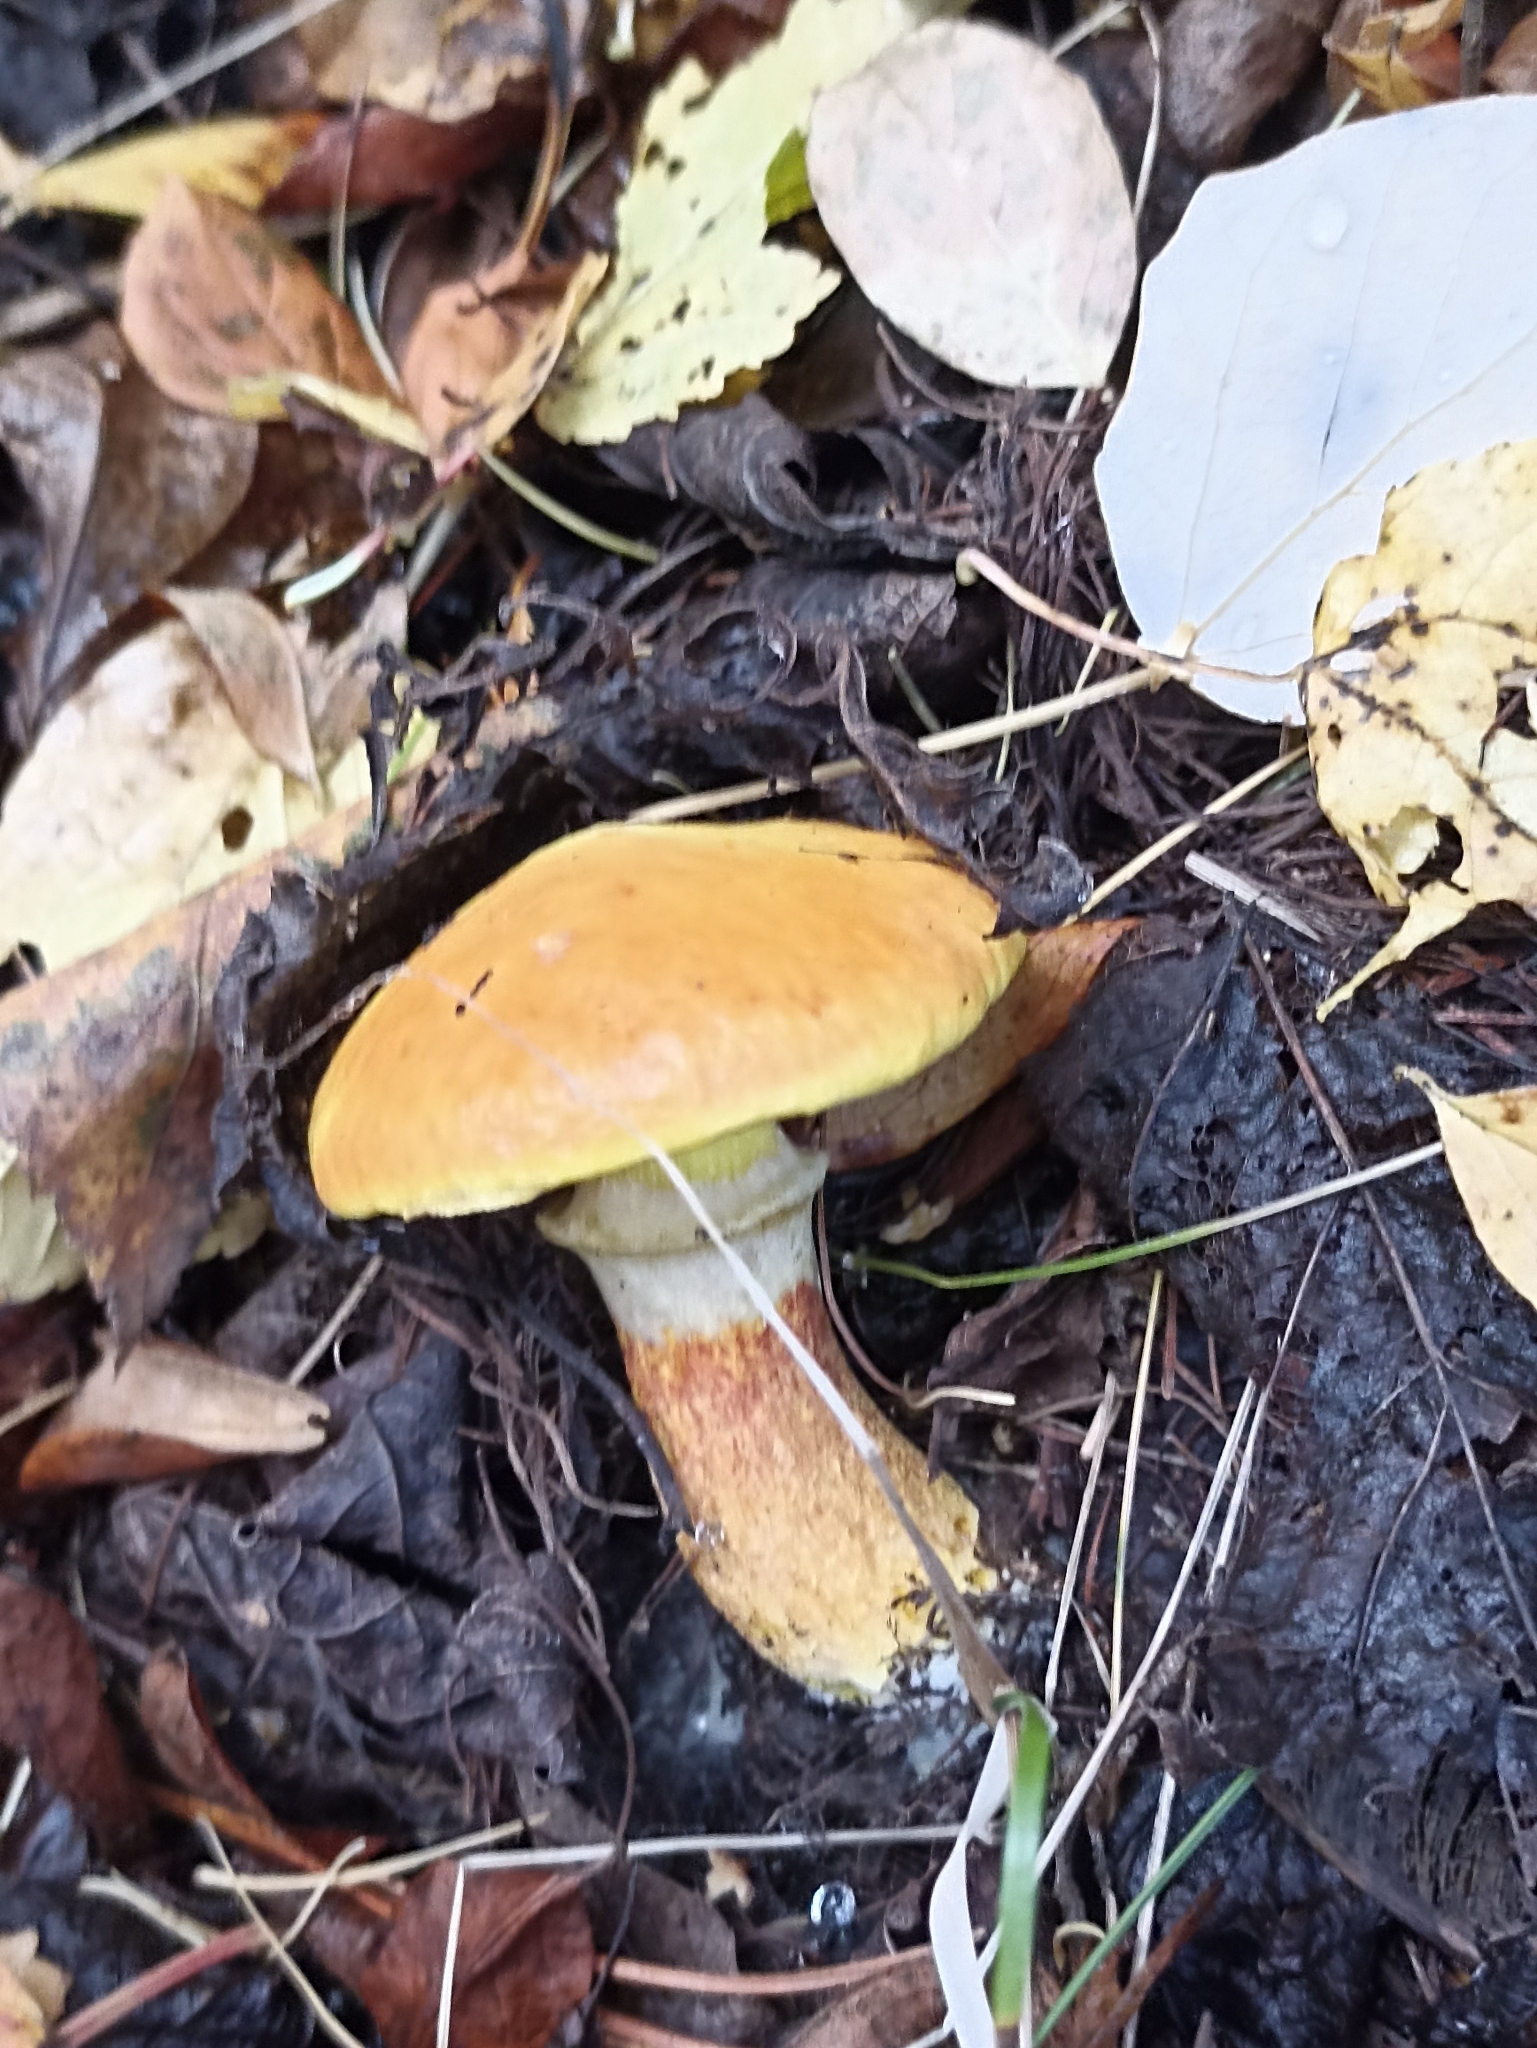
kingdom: Fungi
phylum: Basidiomycota
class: Agaricomycetes
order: Boletales
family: Suillaceae
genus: Suillus
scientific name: Suillus grevillei
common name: Larch bolete
